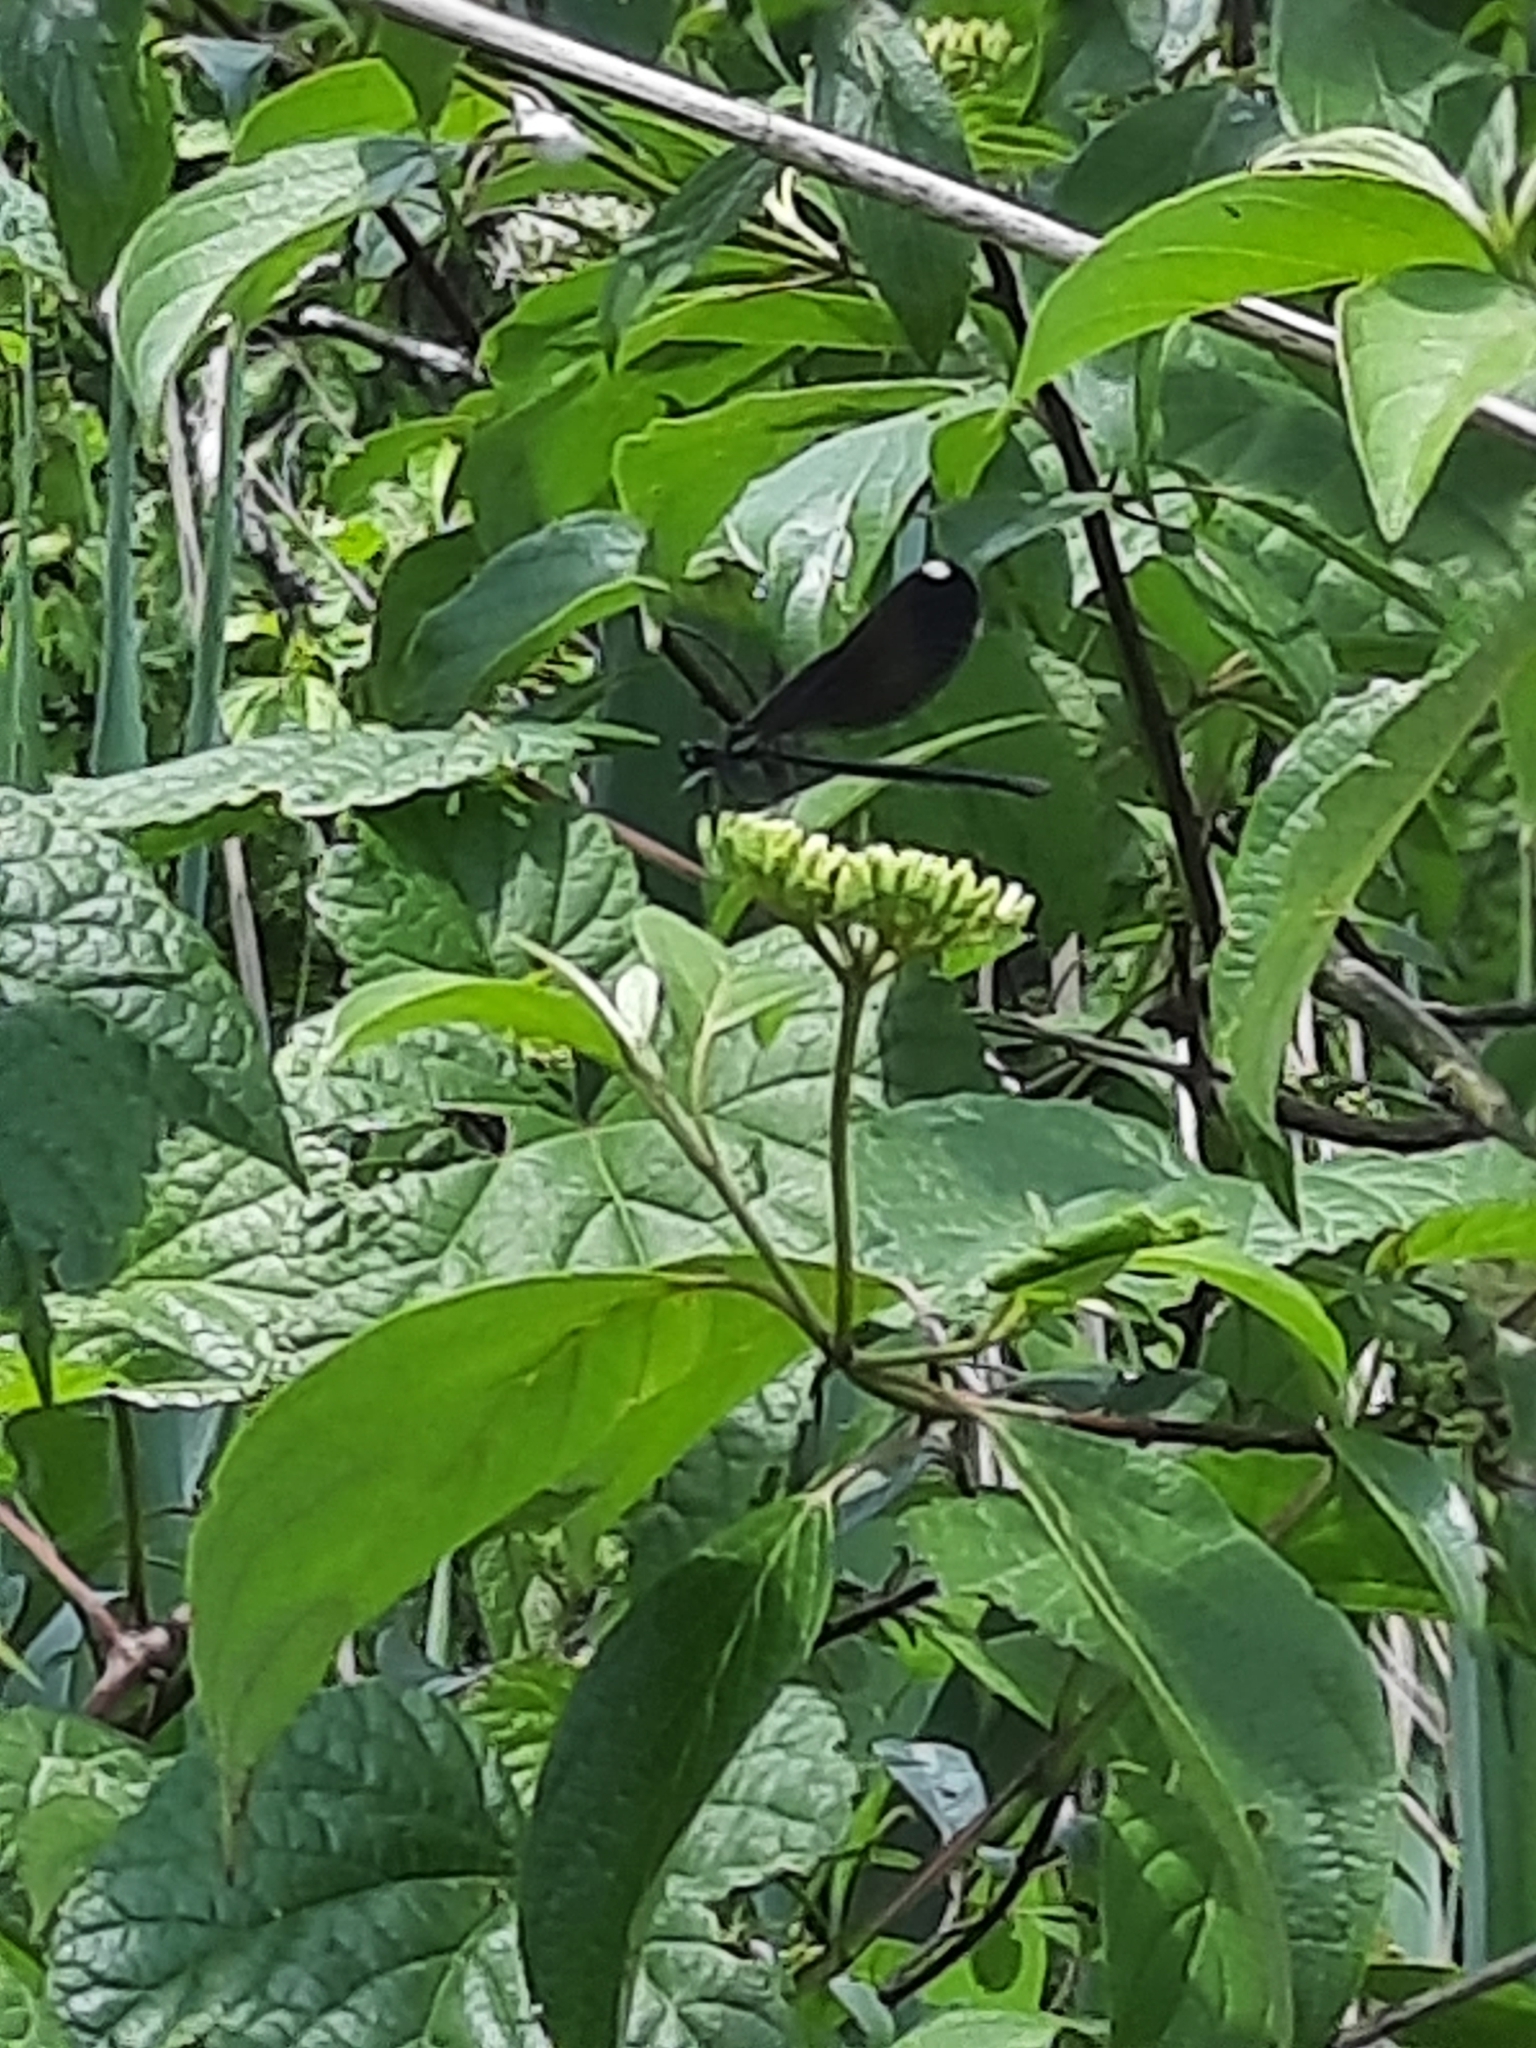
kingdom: Animalia
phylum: Arthropoda
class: Insecta
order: Odonata
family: Calopterygidae
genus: Calopteryx
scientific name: Calopteryx maculata
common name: Ebony jewelwing
